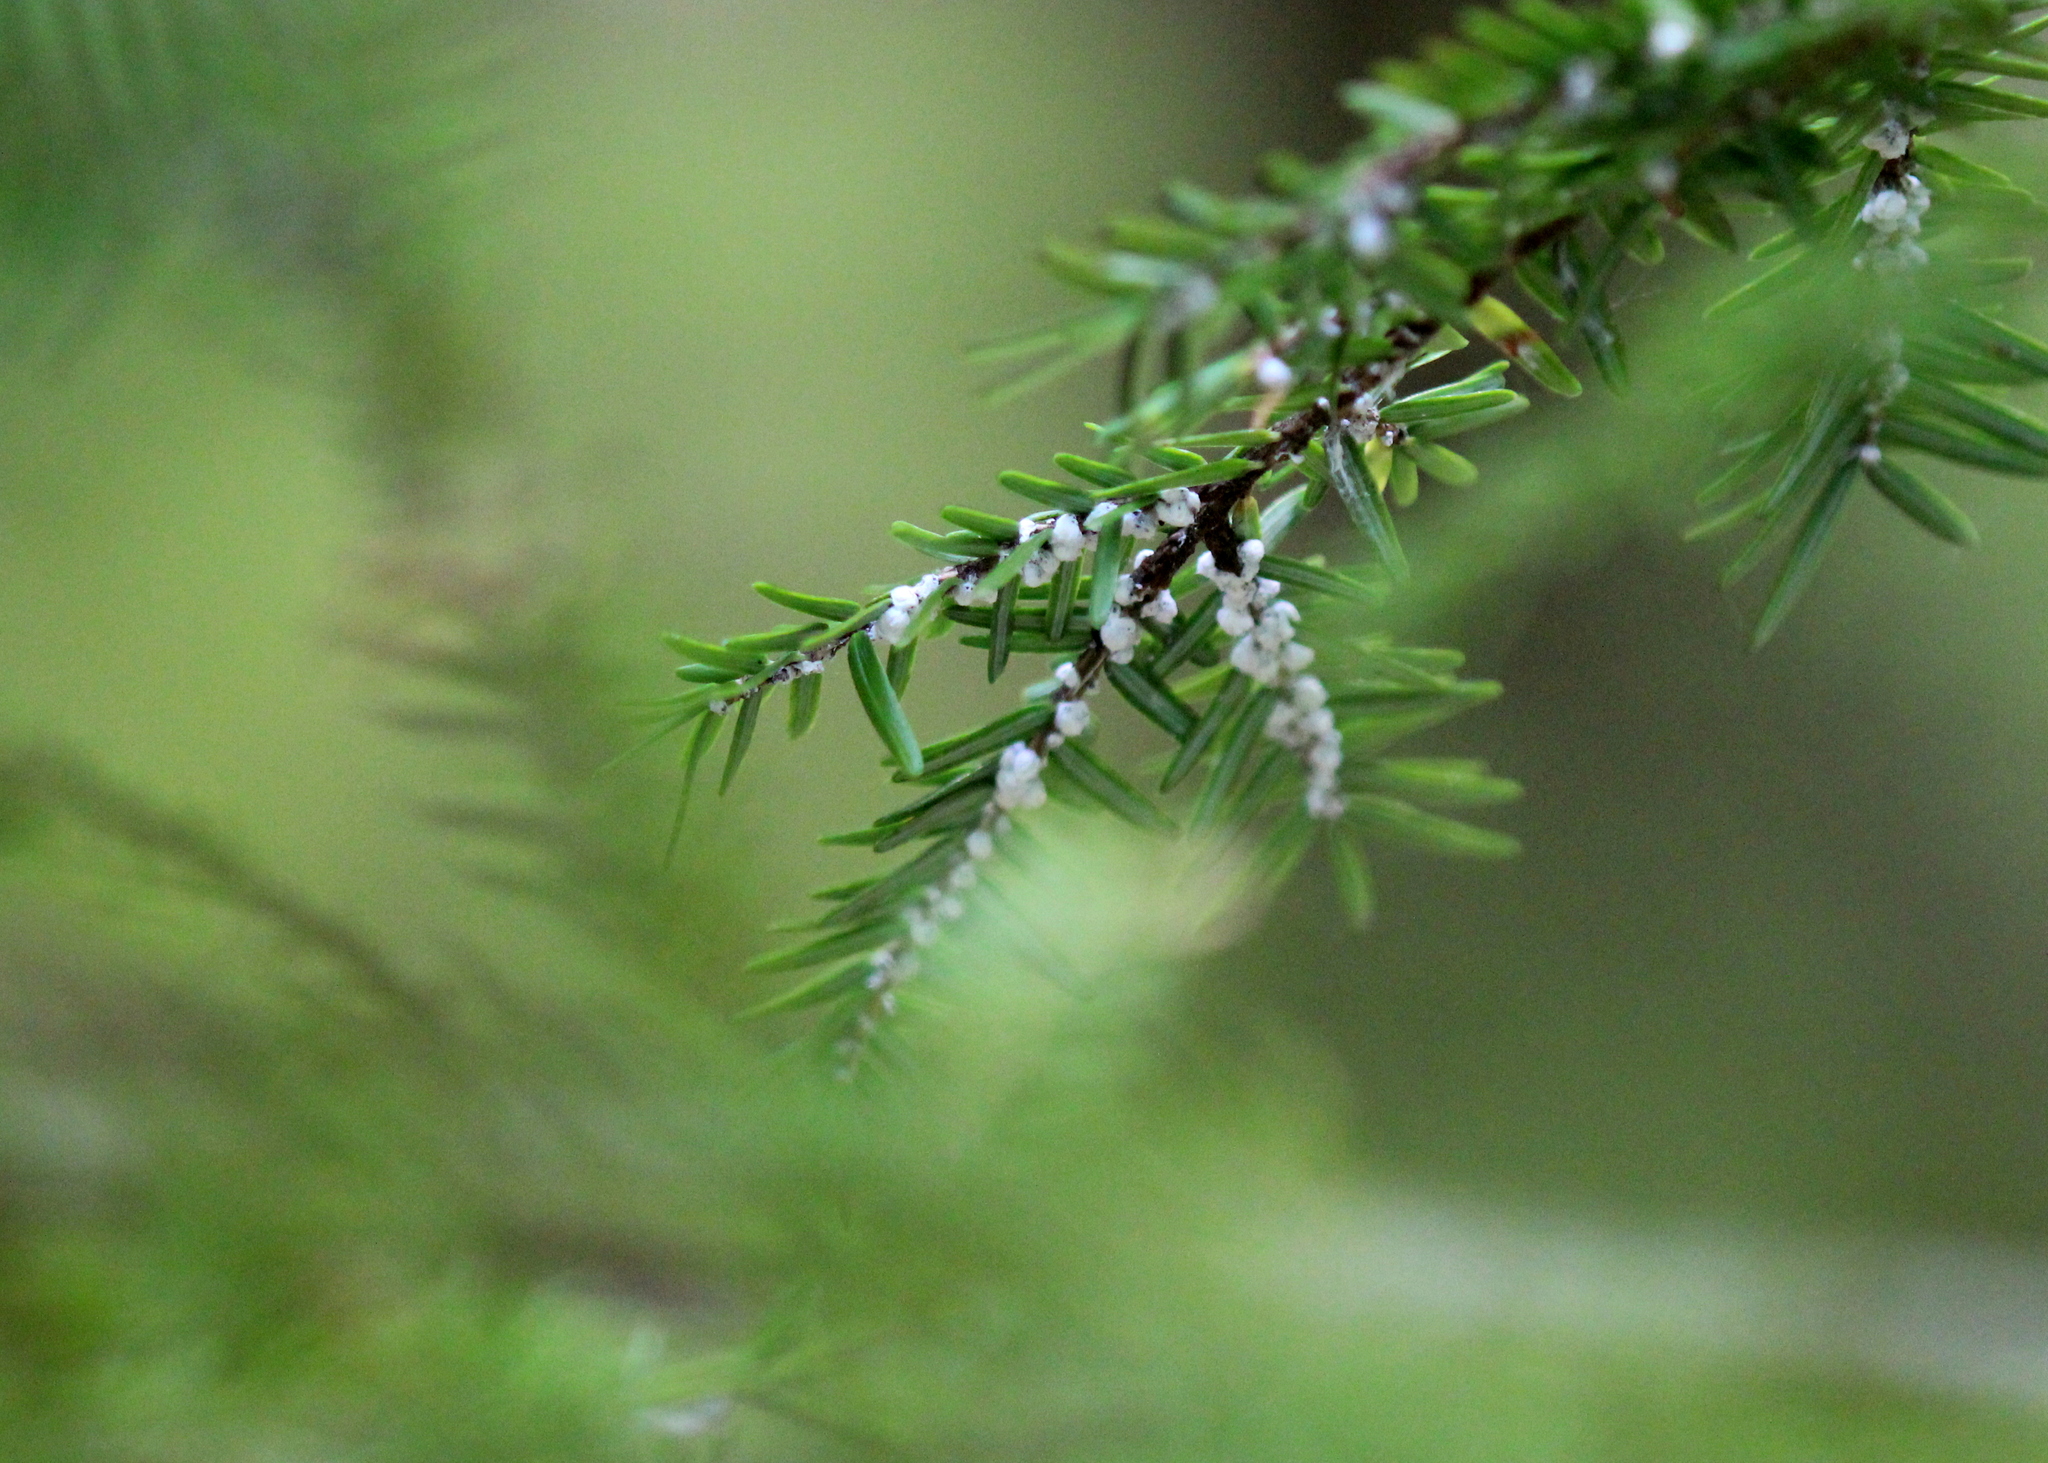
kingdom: Plantae
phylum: Tracheophyta
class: Pinopsida
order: Pinales
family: Pinaceae
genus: Tsuga
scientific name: Tsuga canadensis
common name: Eastern hemlock
